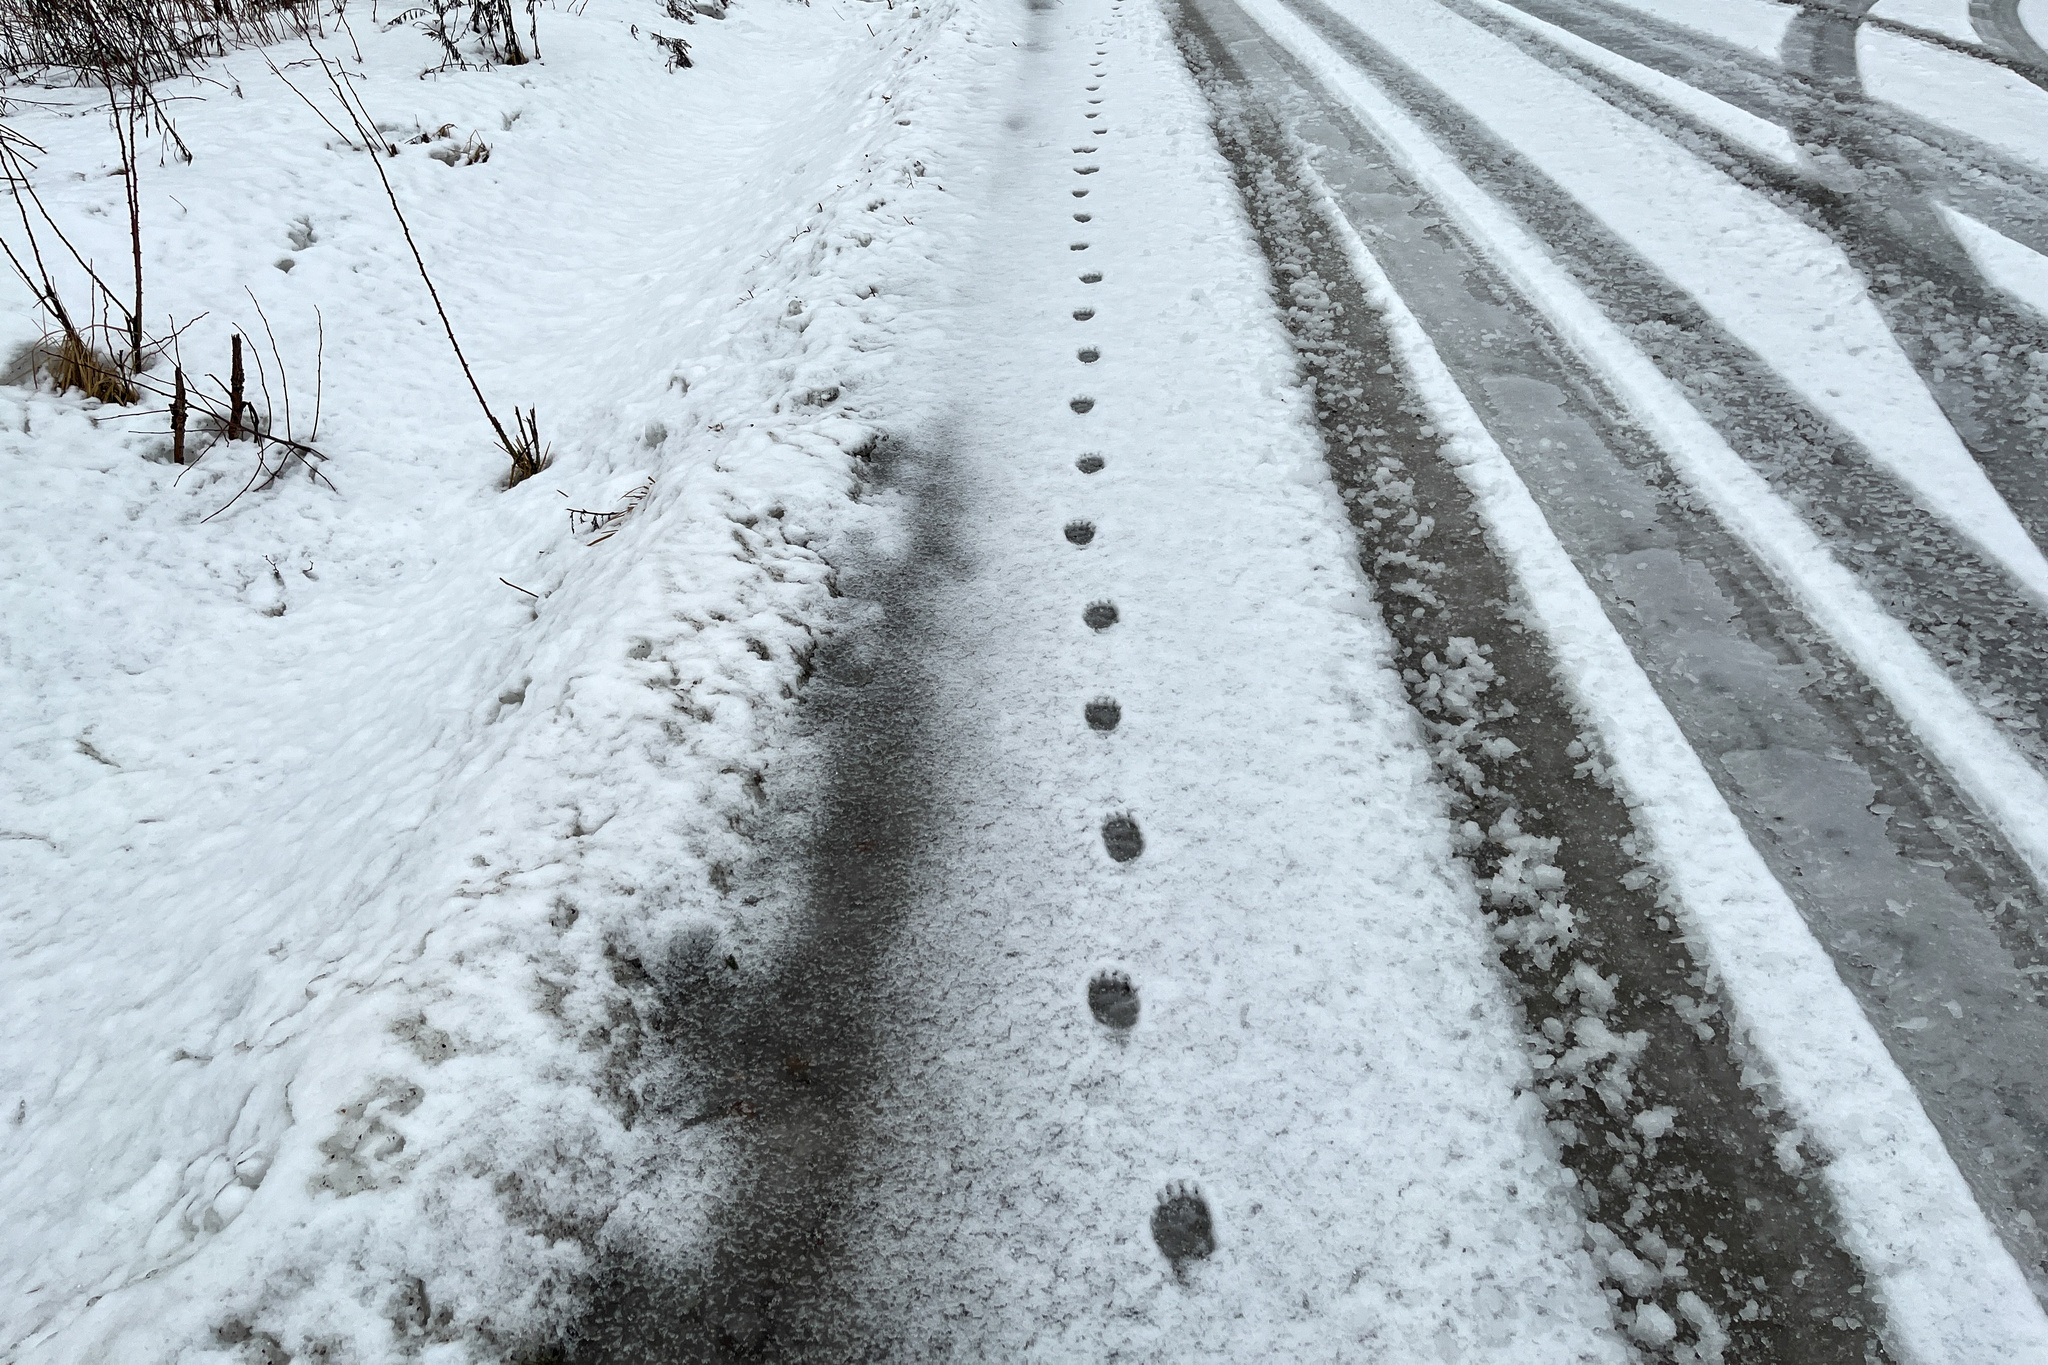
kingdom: Animalia
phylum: Chordata
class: Mammalia
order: Carnivora
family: Mustelidae
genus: Meles
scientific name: Meles meles
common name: Eurasian badger
